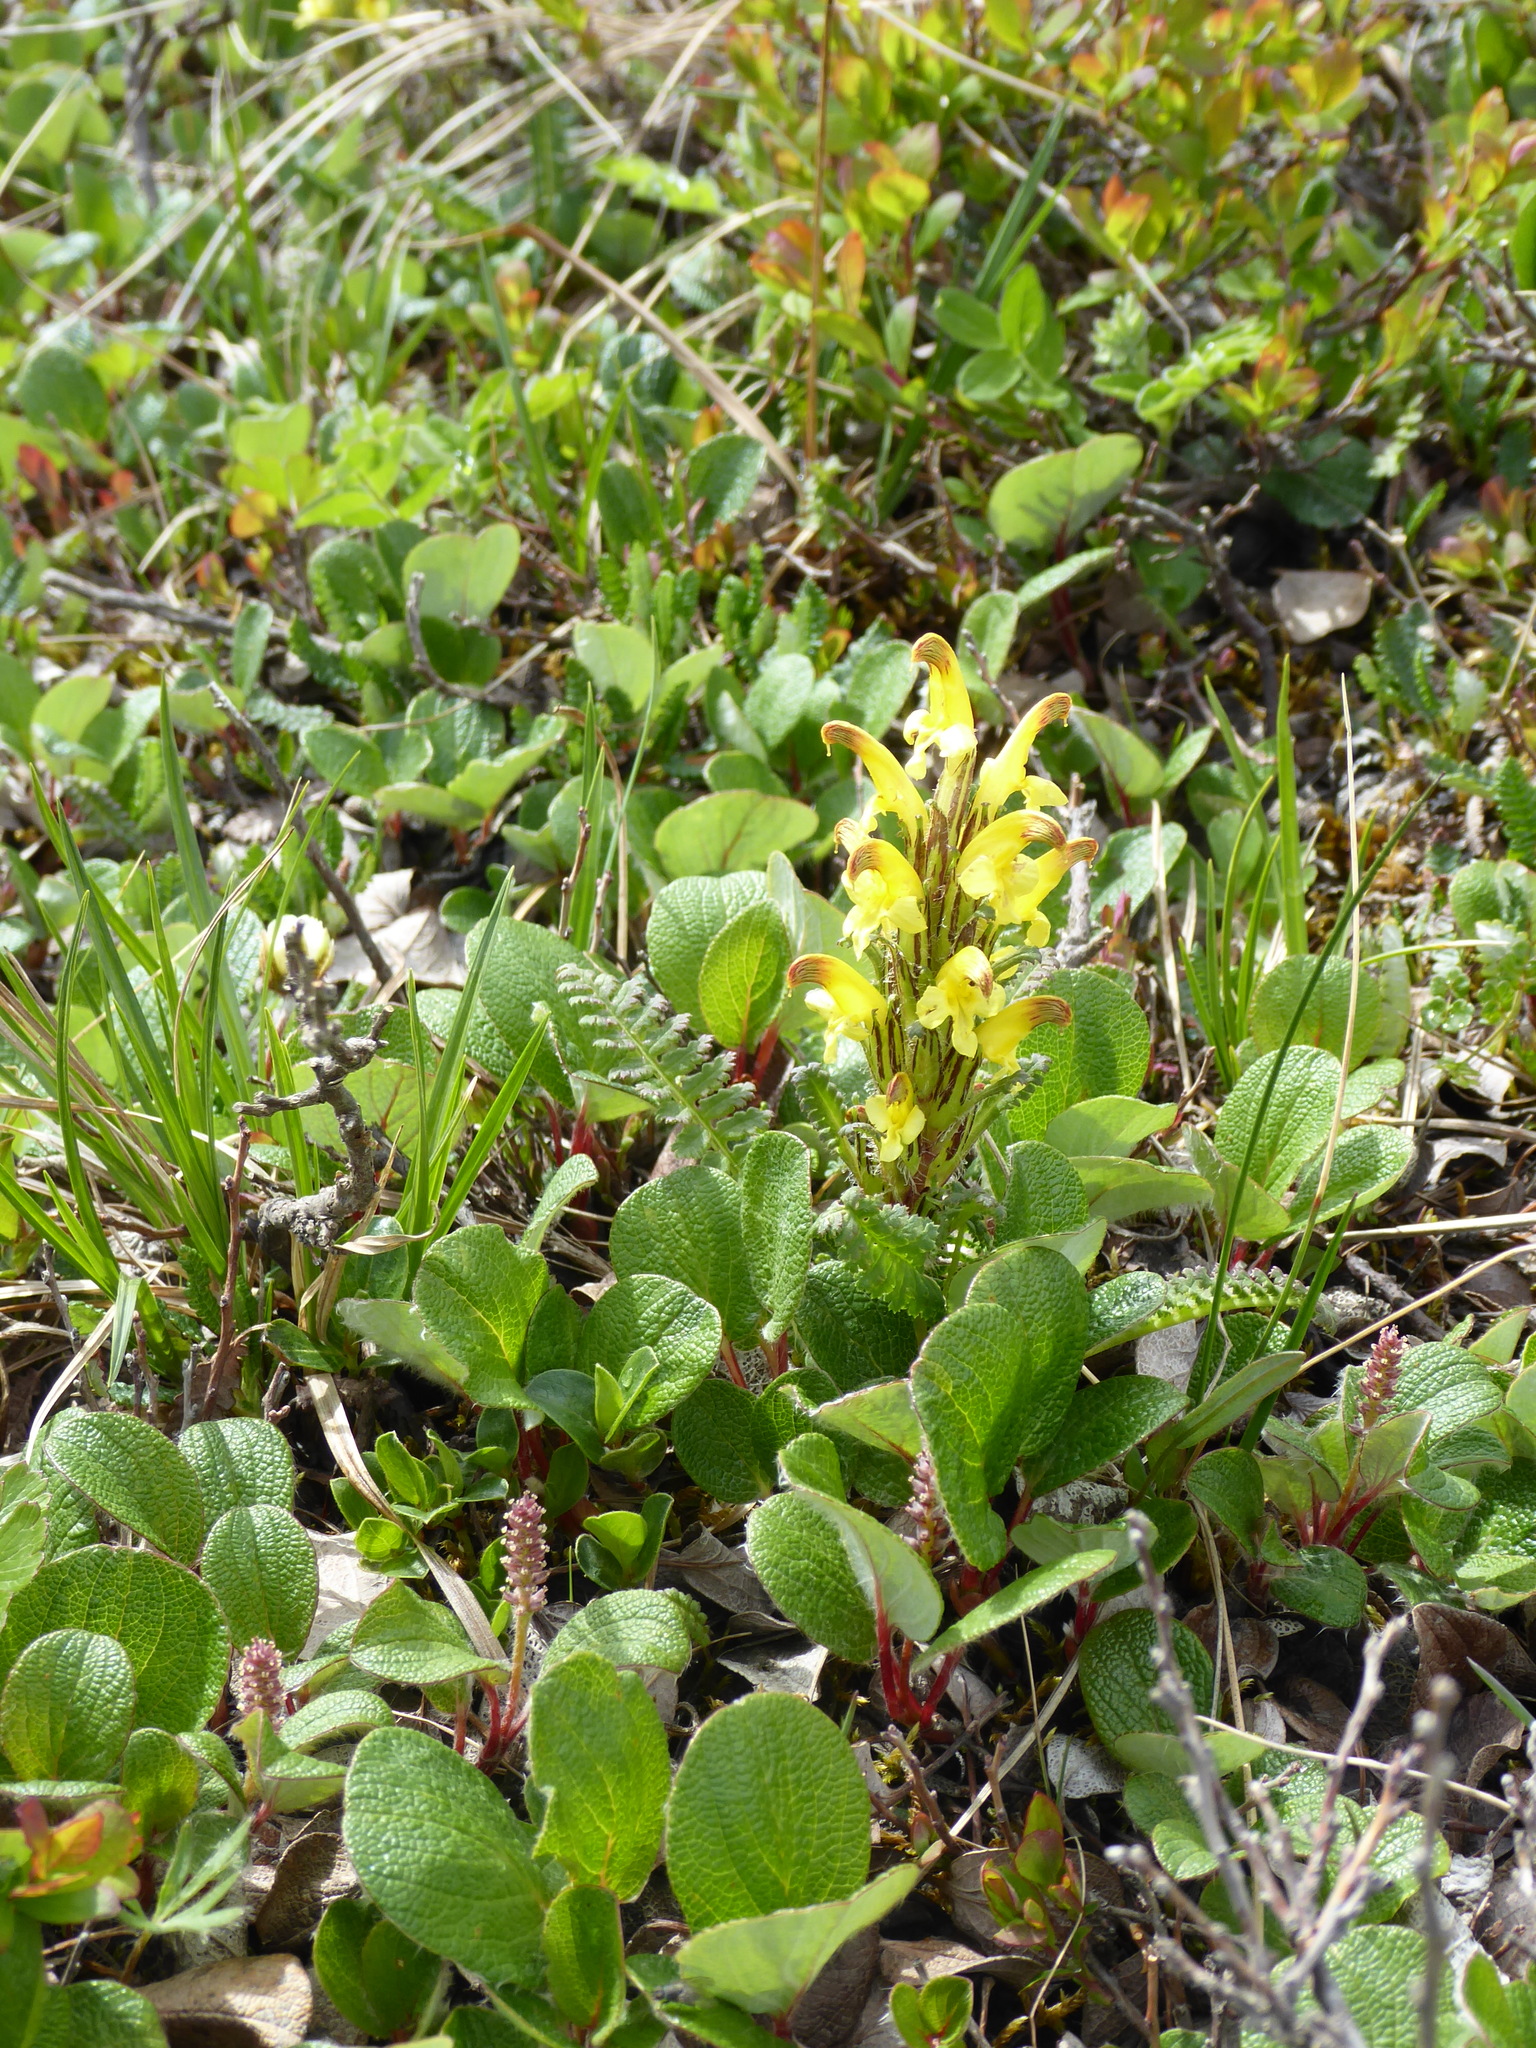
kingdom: Plantae
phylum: Tracheophyta
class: Magnoliopsida
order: Lamiales
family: Orobanchaceae
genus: Pedicularis
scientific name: Pedicularis oederi
